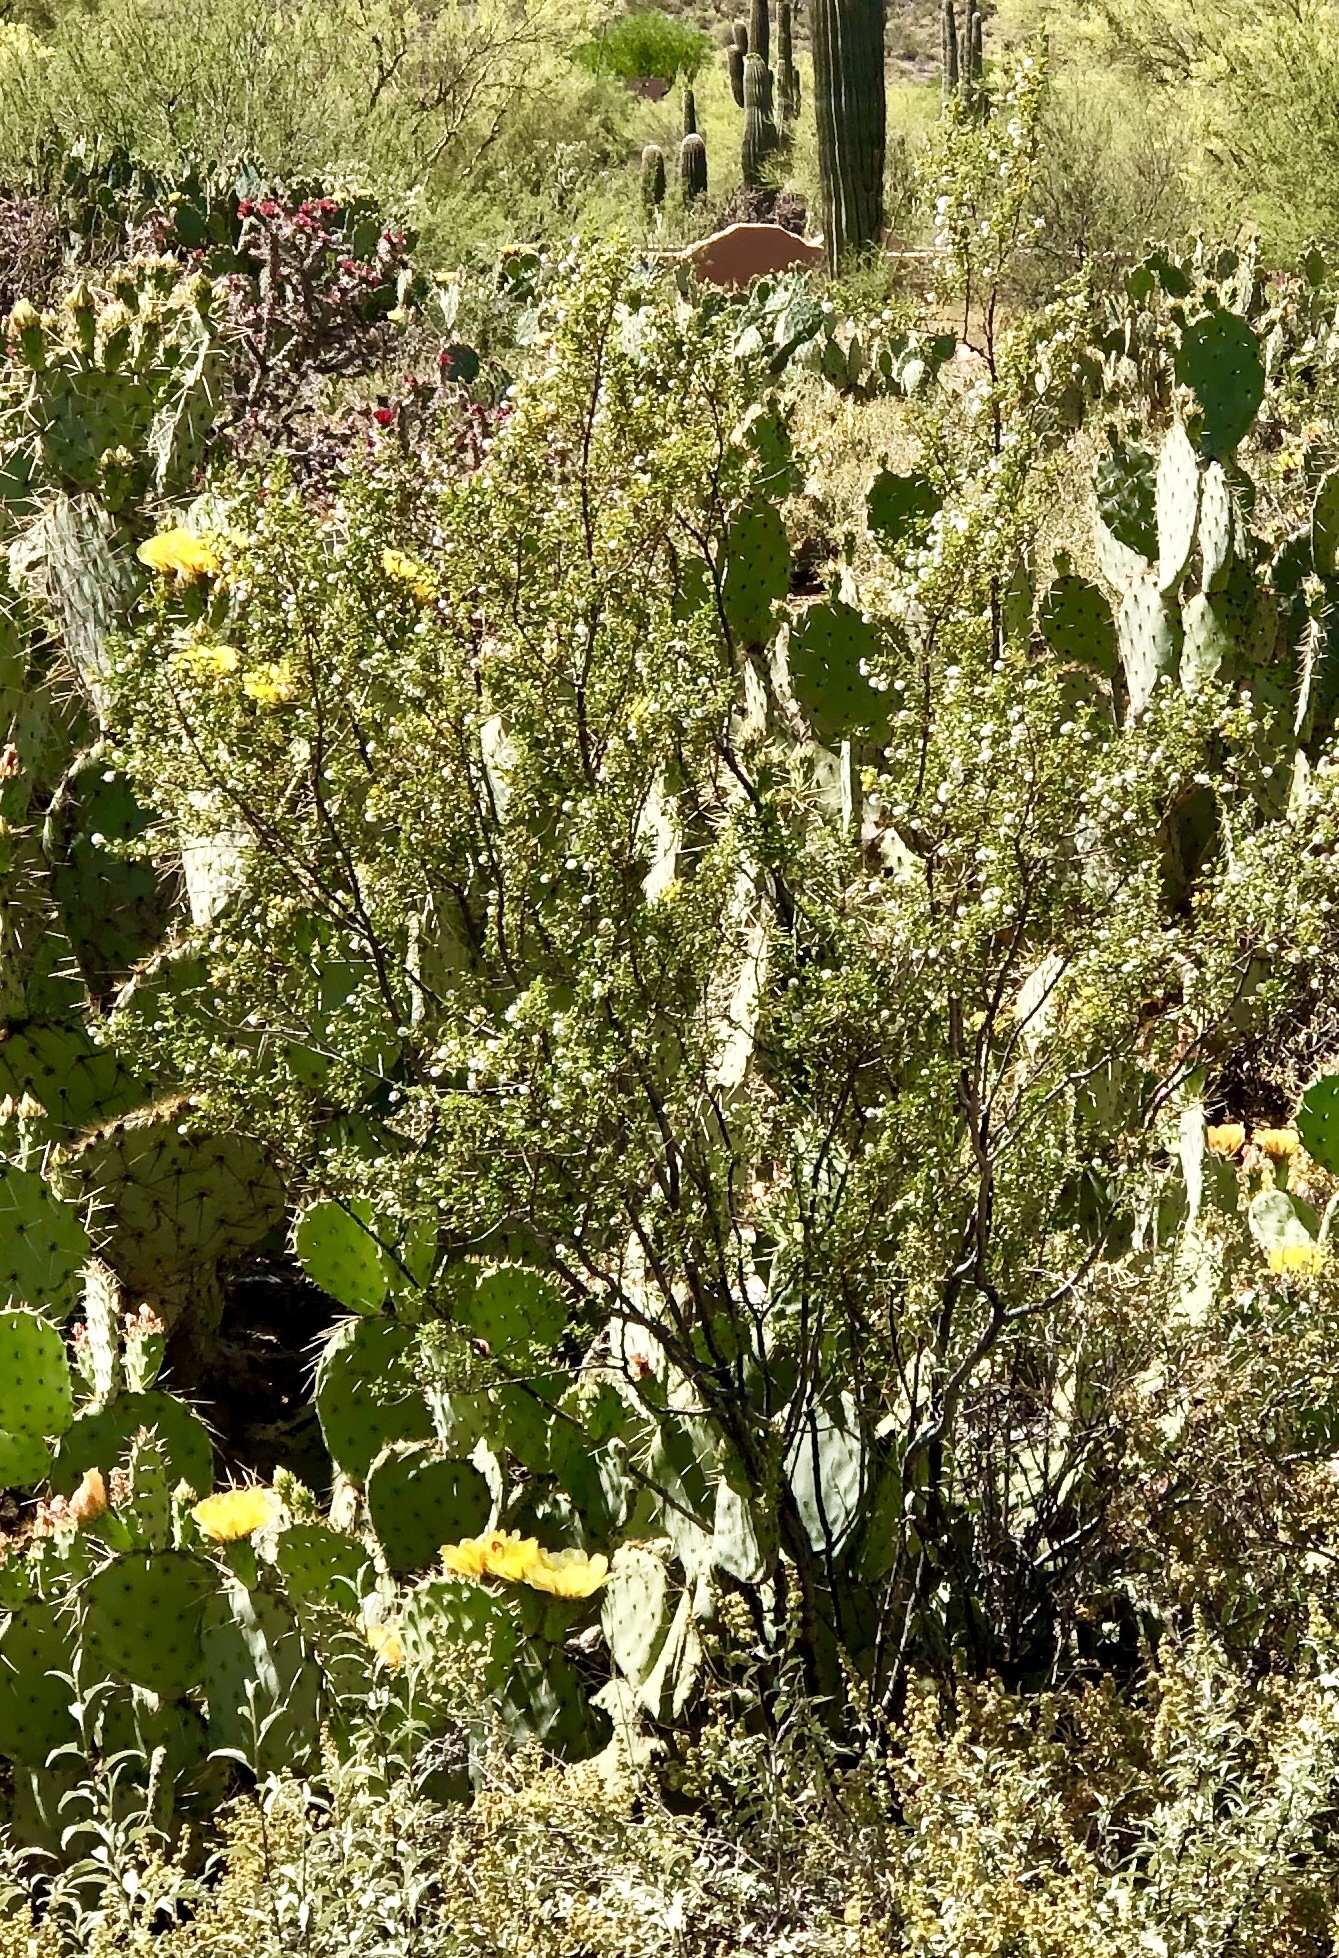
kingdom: Plantae
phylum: Tracheophyta
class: Magnoliopsida
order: Zygophyllales
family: Zygophyllaceae
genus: Larrea
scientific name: Larrea tridentata
